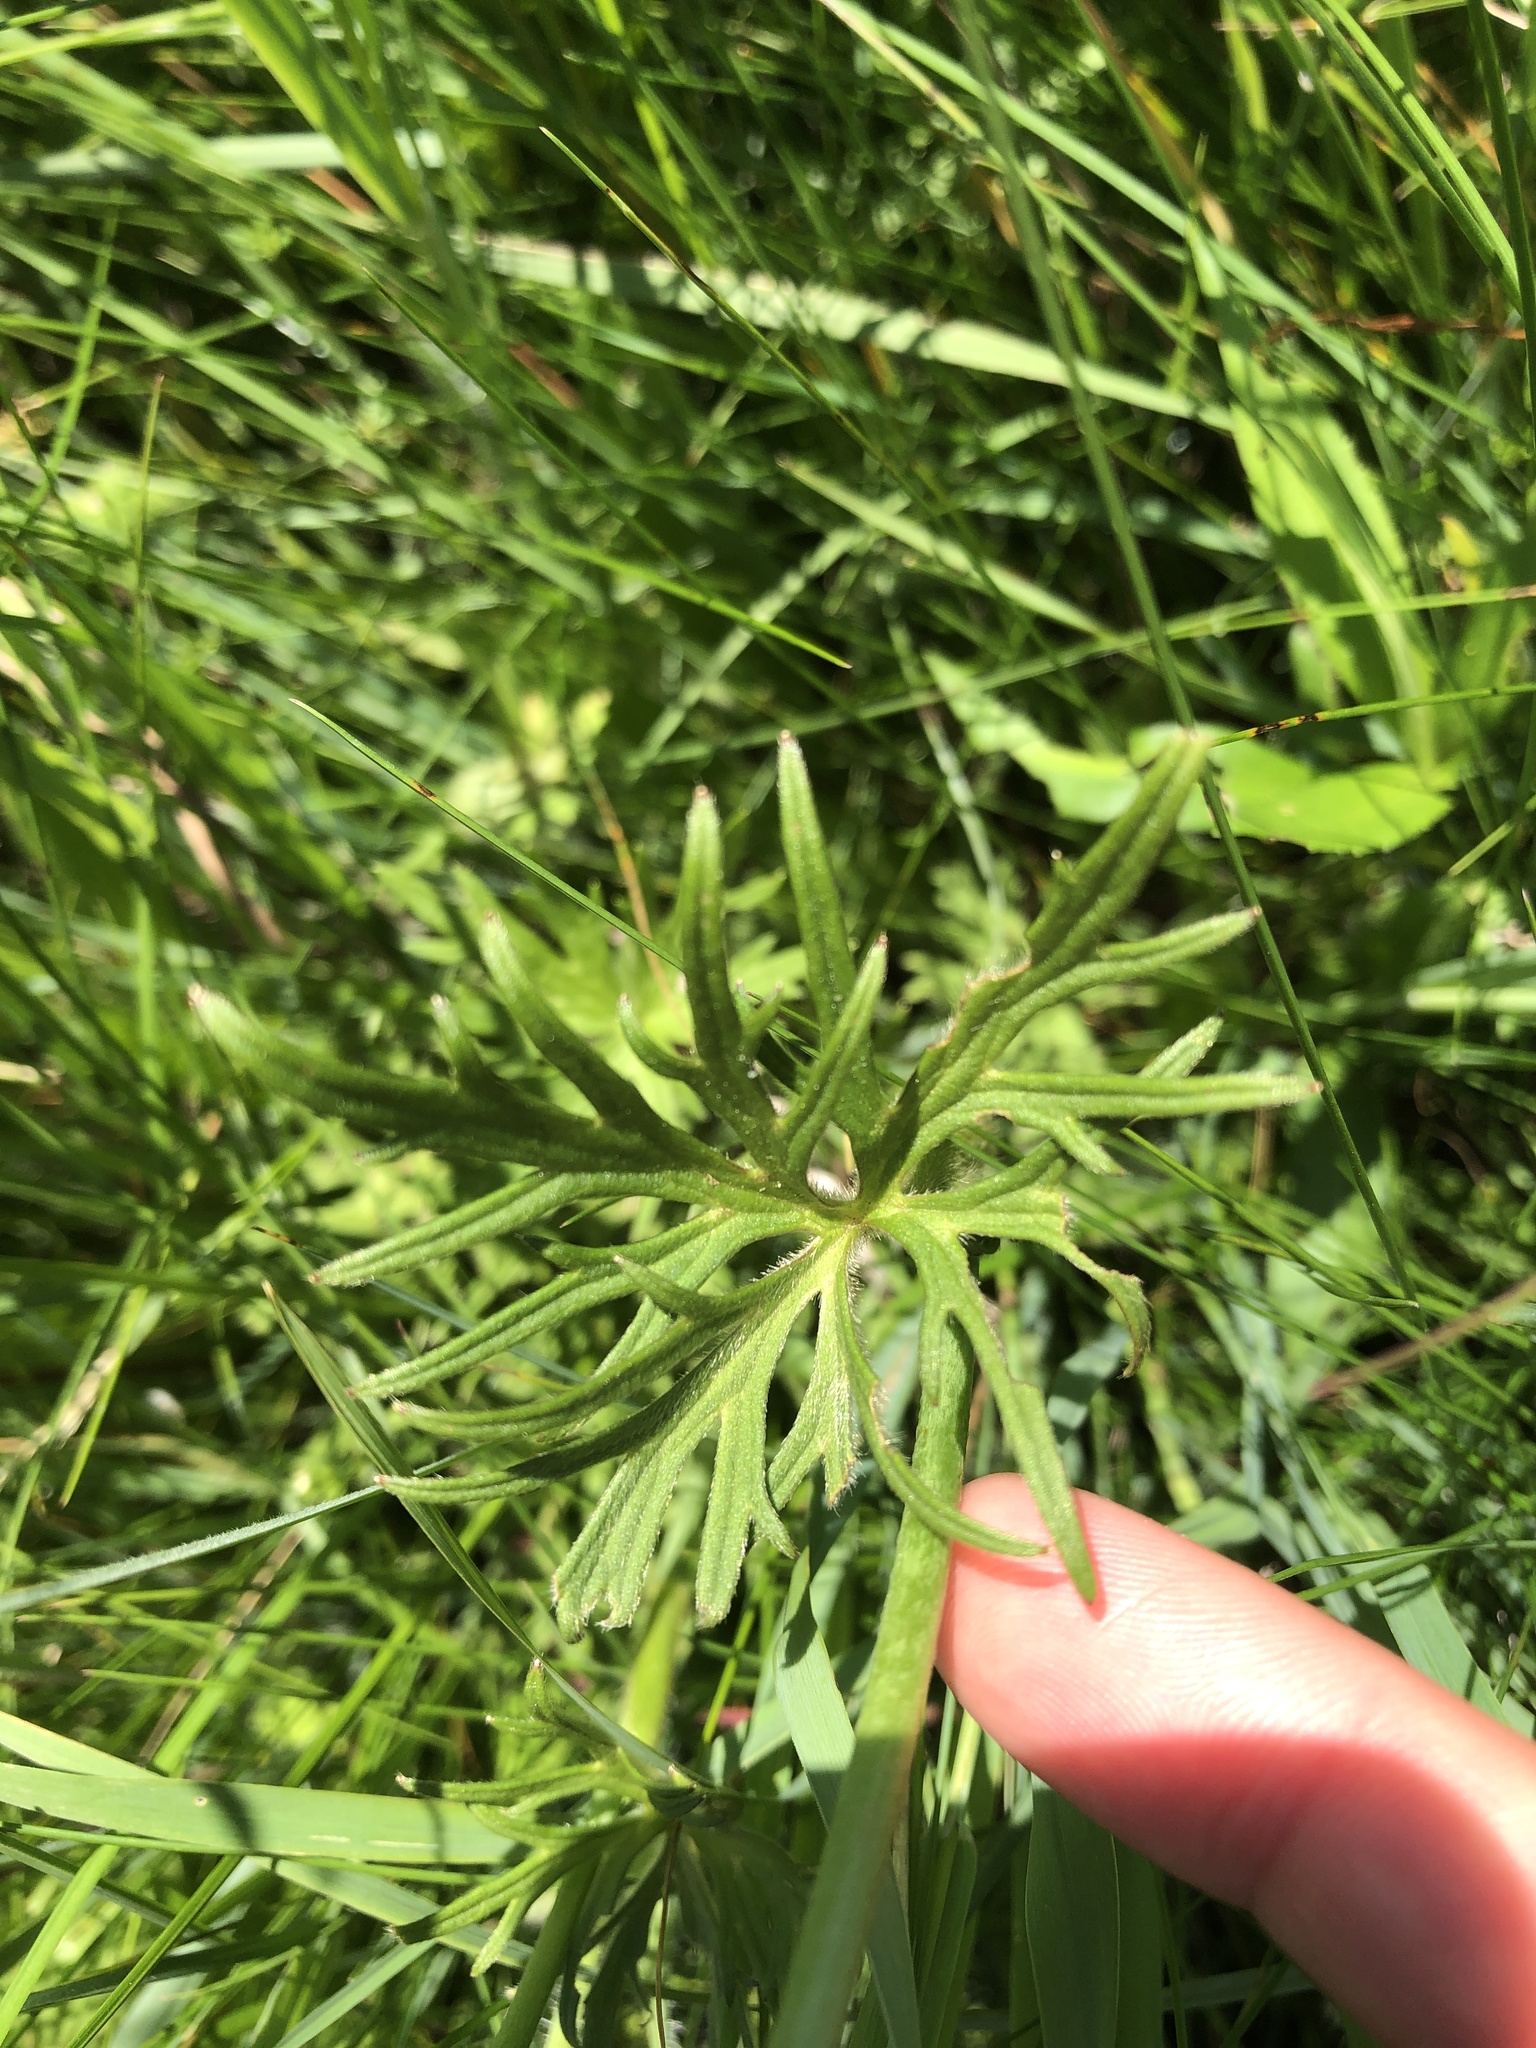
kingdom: Plantae
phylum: Tracheophyta
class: Magnoliopsida
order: Ranunculales
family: Ranunculaceae
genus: Ranunculus
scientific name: Ranunculus acris
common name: Meadow buttercup
